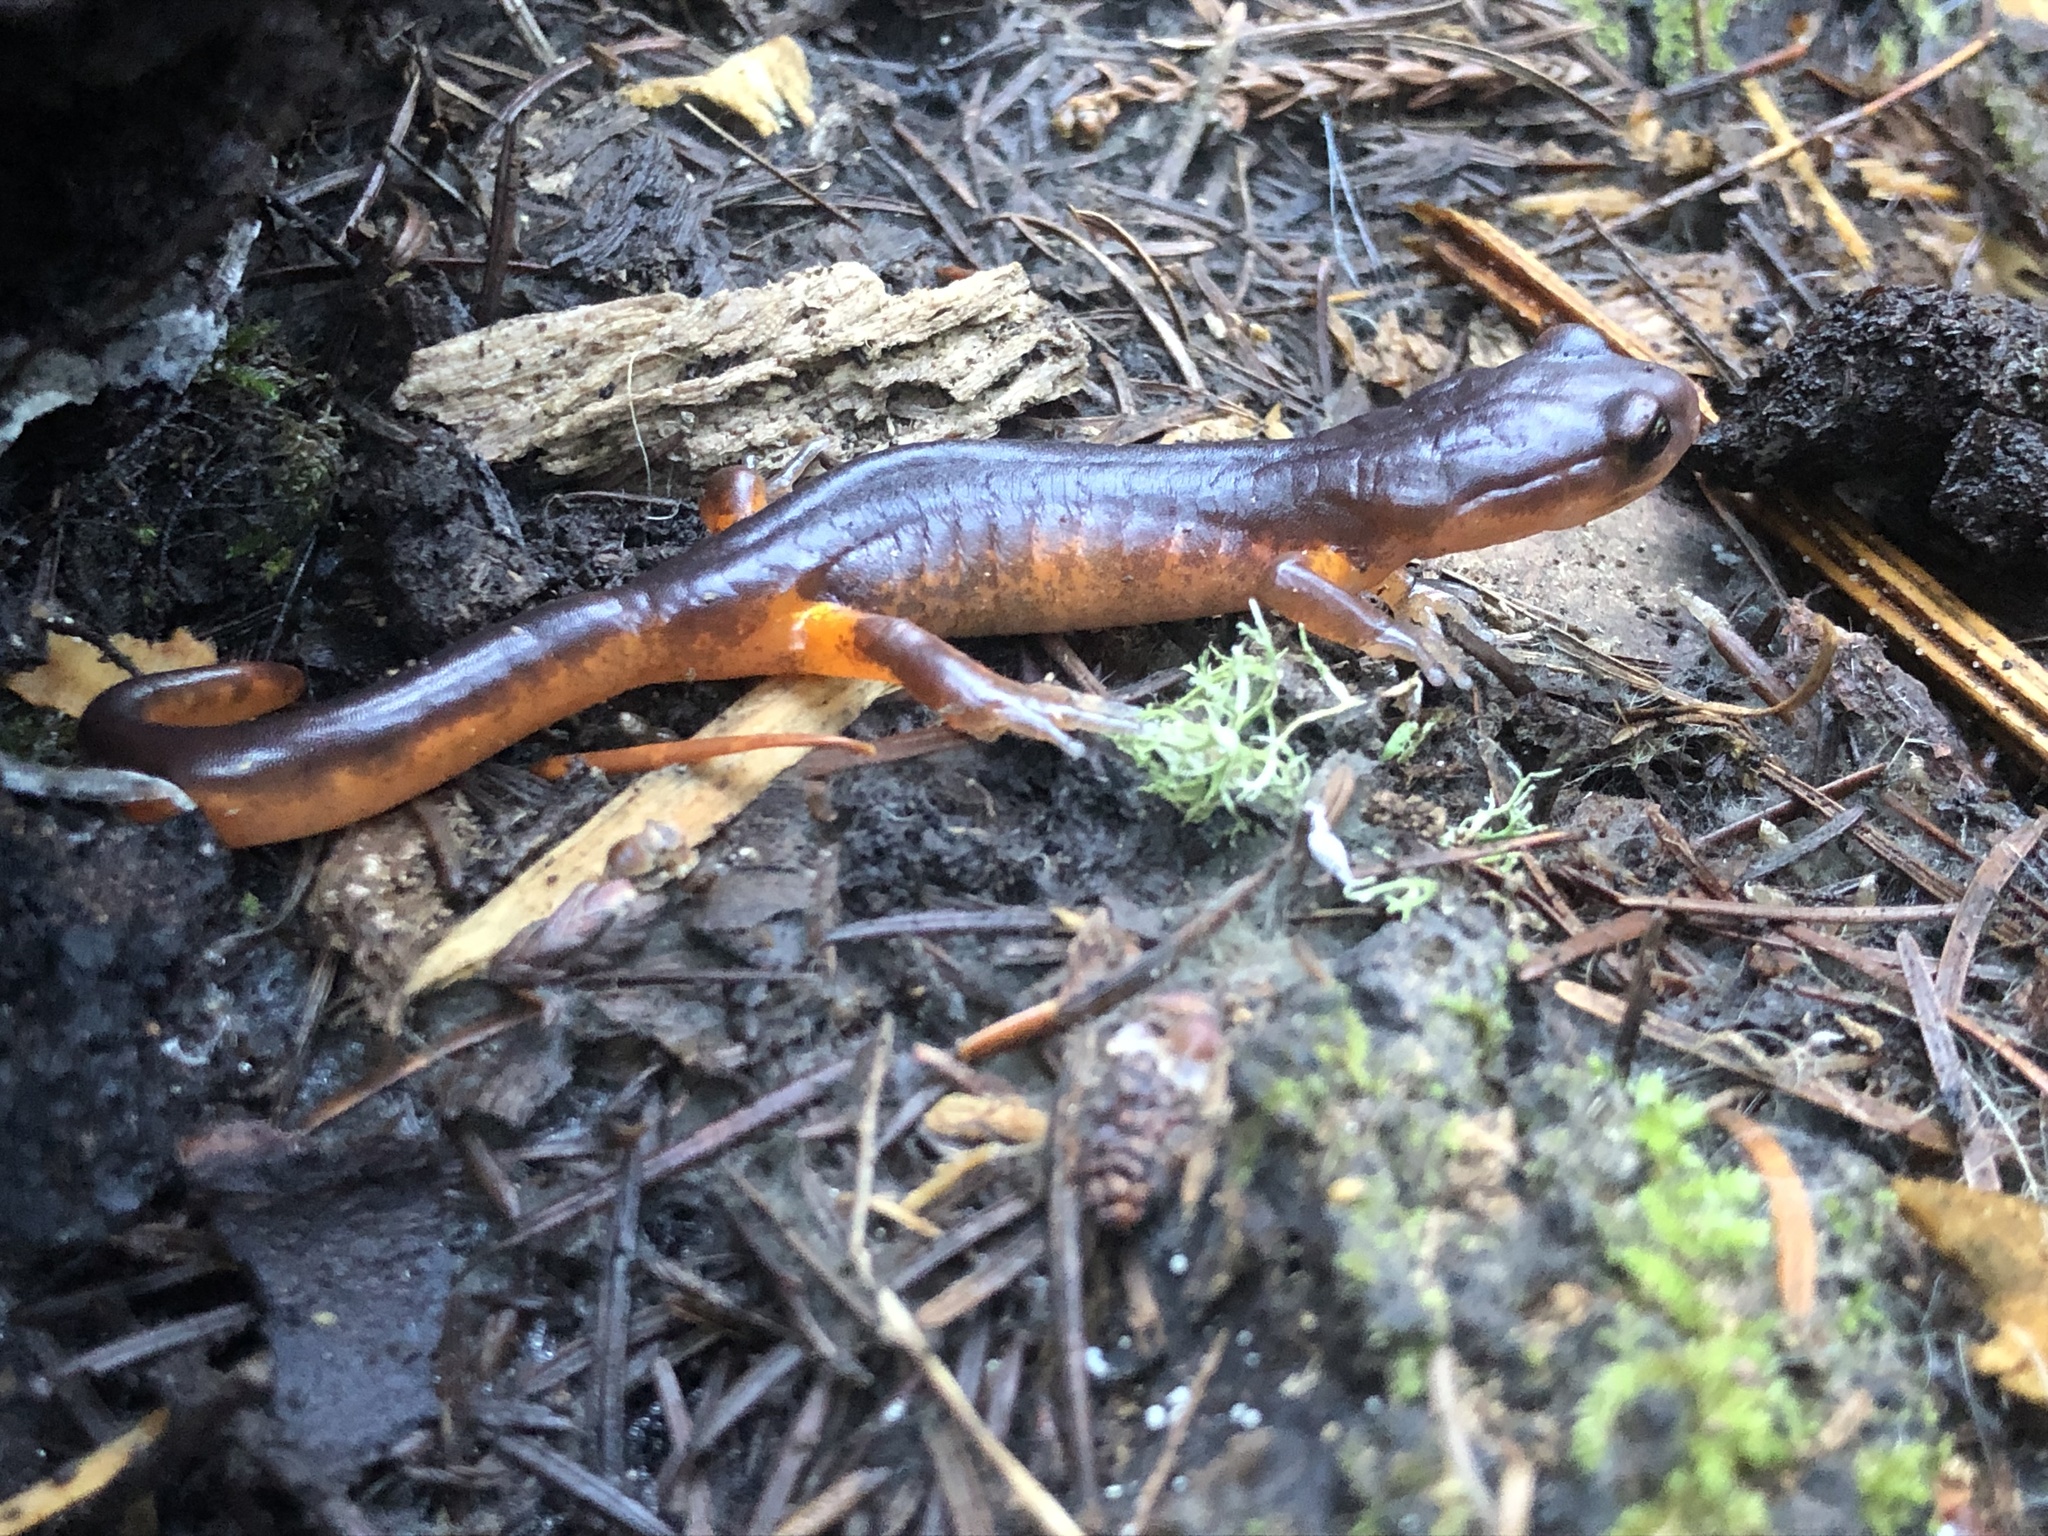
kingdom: Animalia
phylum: Chordata
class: Amphibia
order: Caudata
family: Plethodontidae
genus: Ensatina
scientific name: Ensatina eschscholtzii
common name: Ensatina
